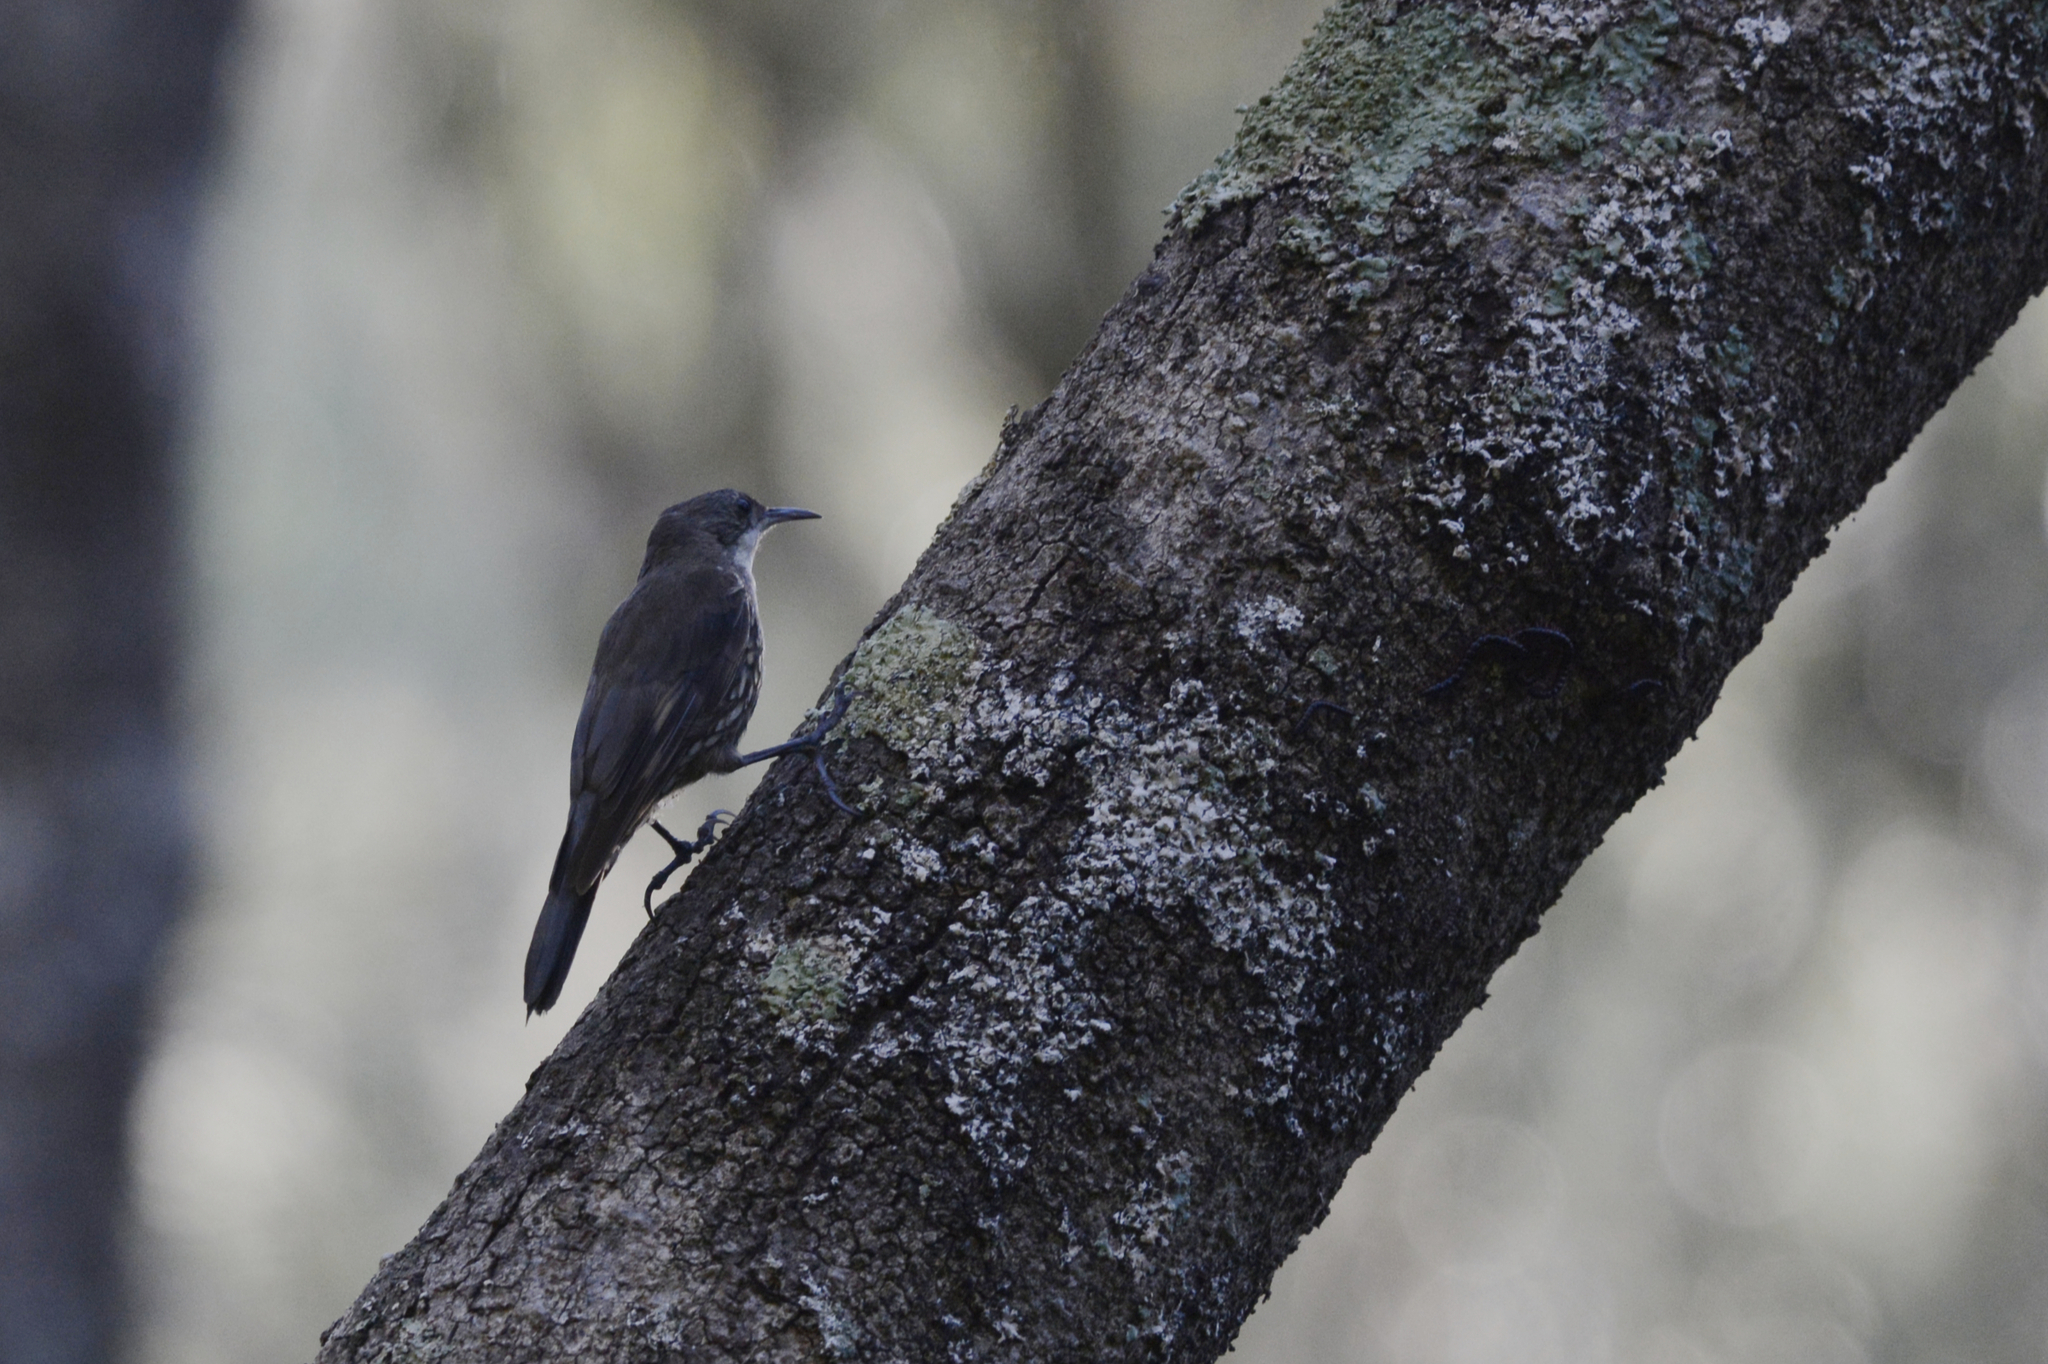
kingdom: Animalia
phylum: Chordata
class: Aves
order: Passeriformes
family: Climacteridae
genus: Cormobates
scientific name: Cormobates leucophaea
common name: White-throated treecreeper
